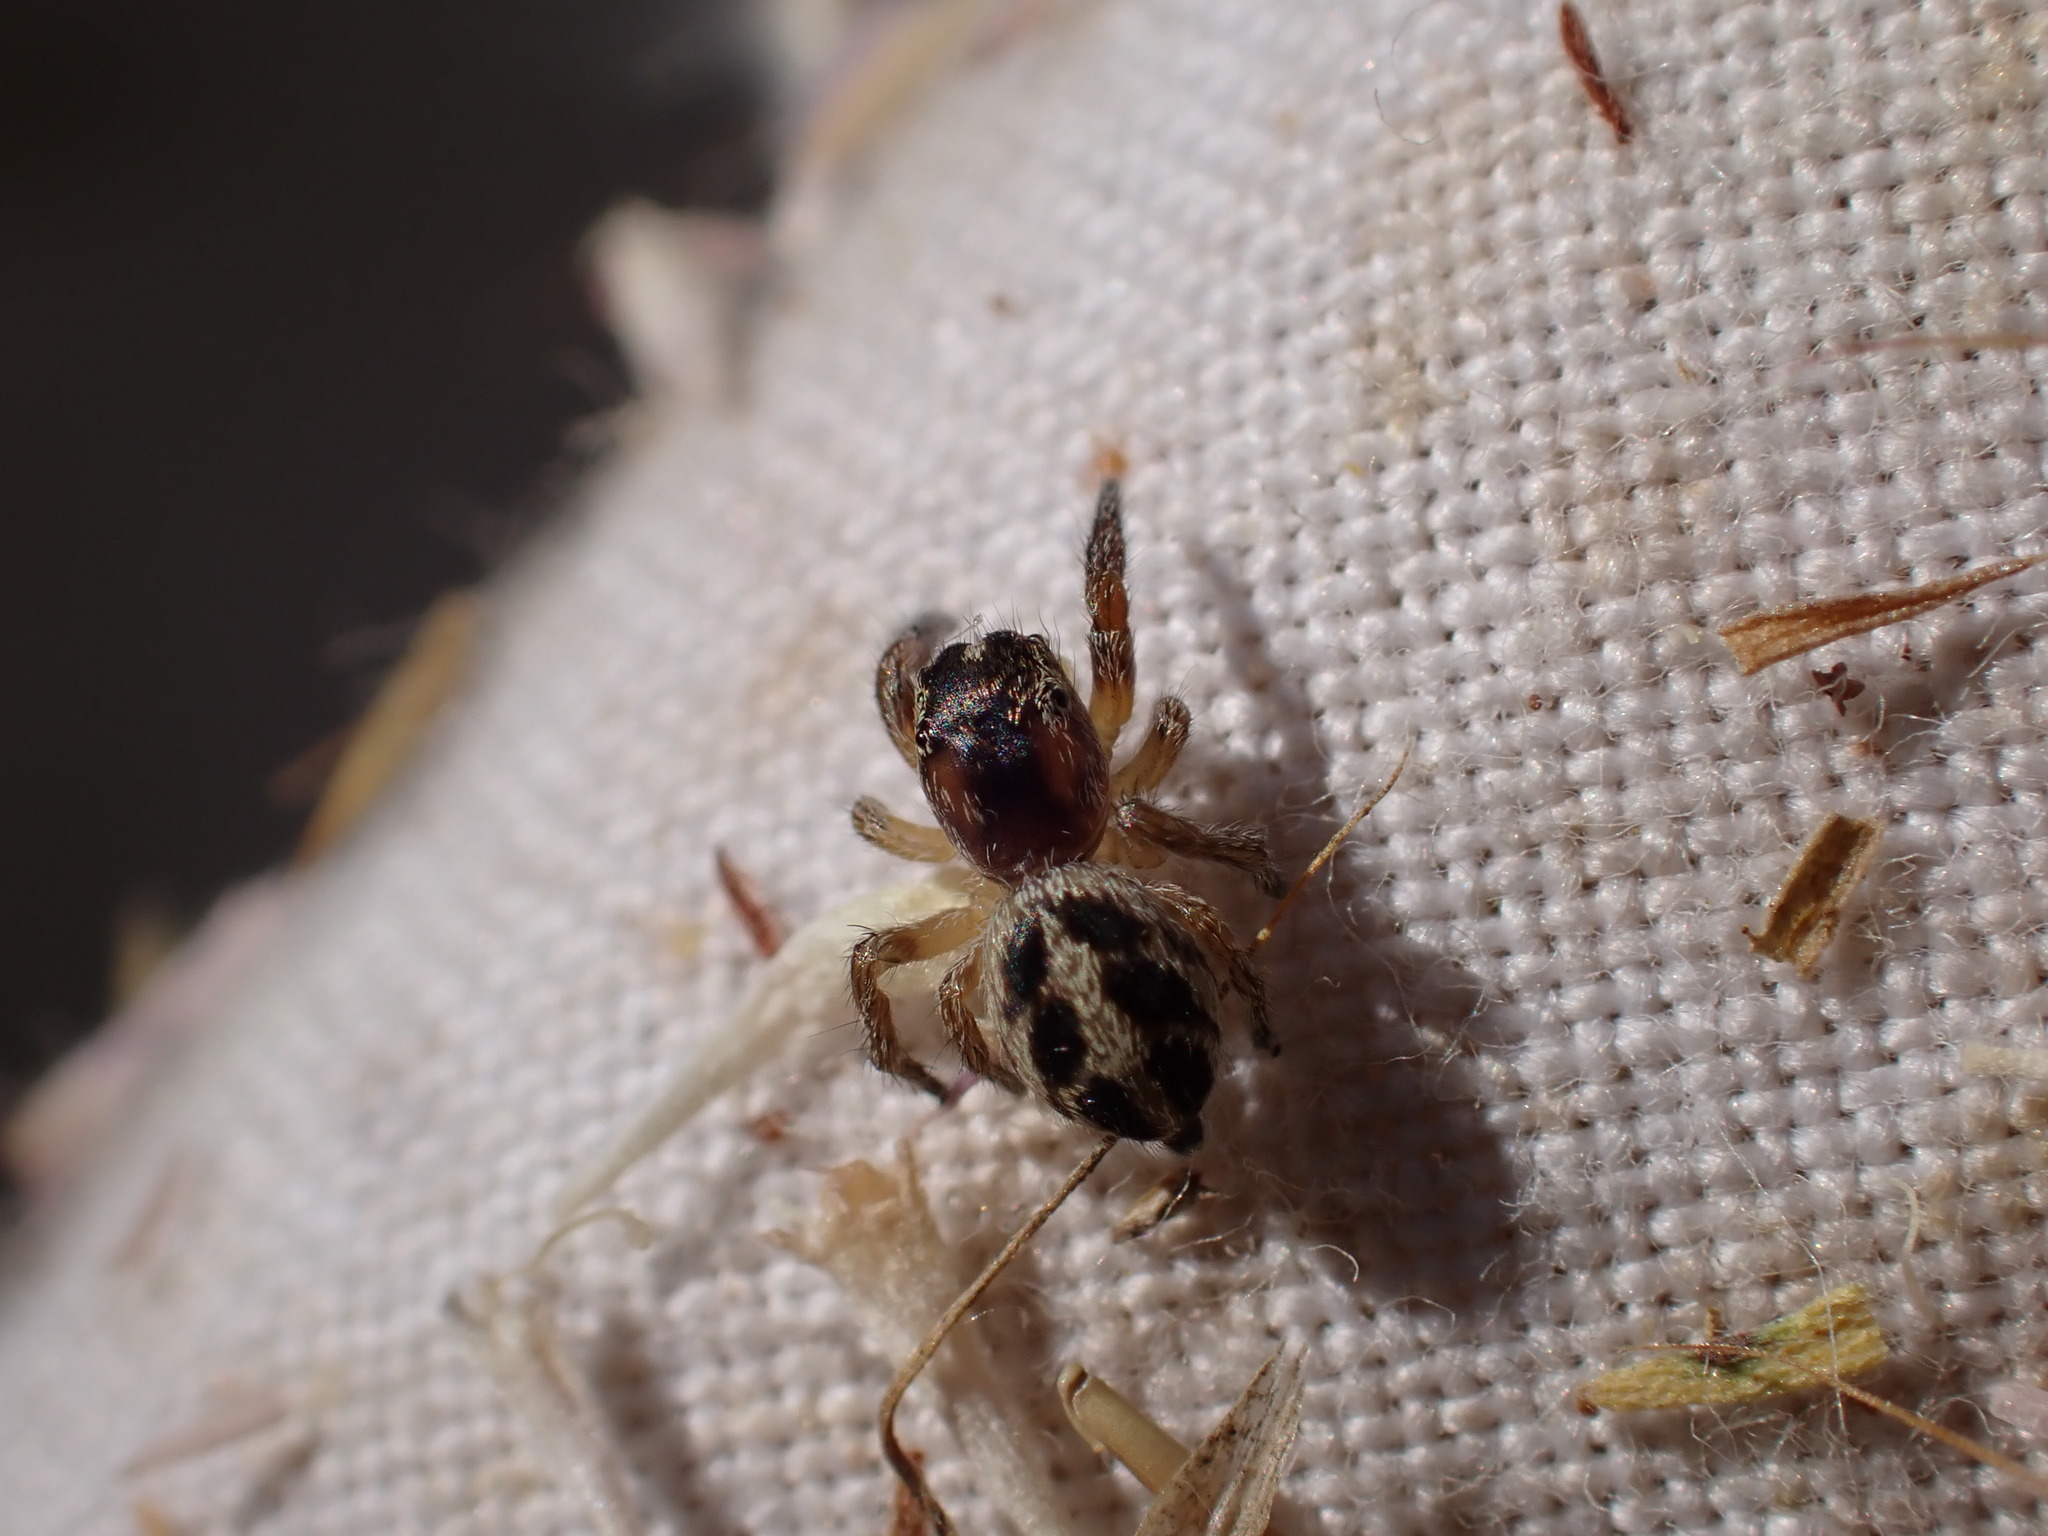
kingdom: Animalia
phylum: Arthropoda
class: Arachnida
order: Araneae
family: Salticidae
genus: Pellenes
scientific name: Pellenes canosus
